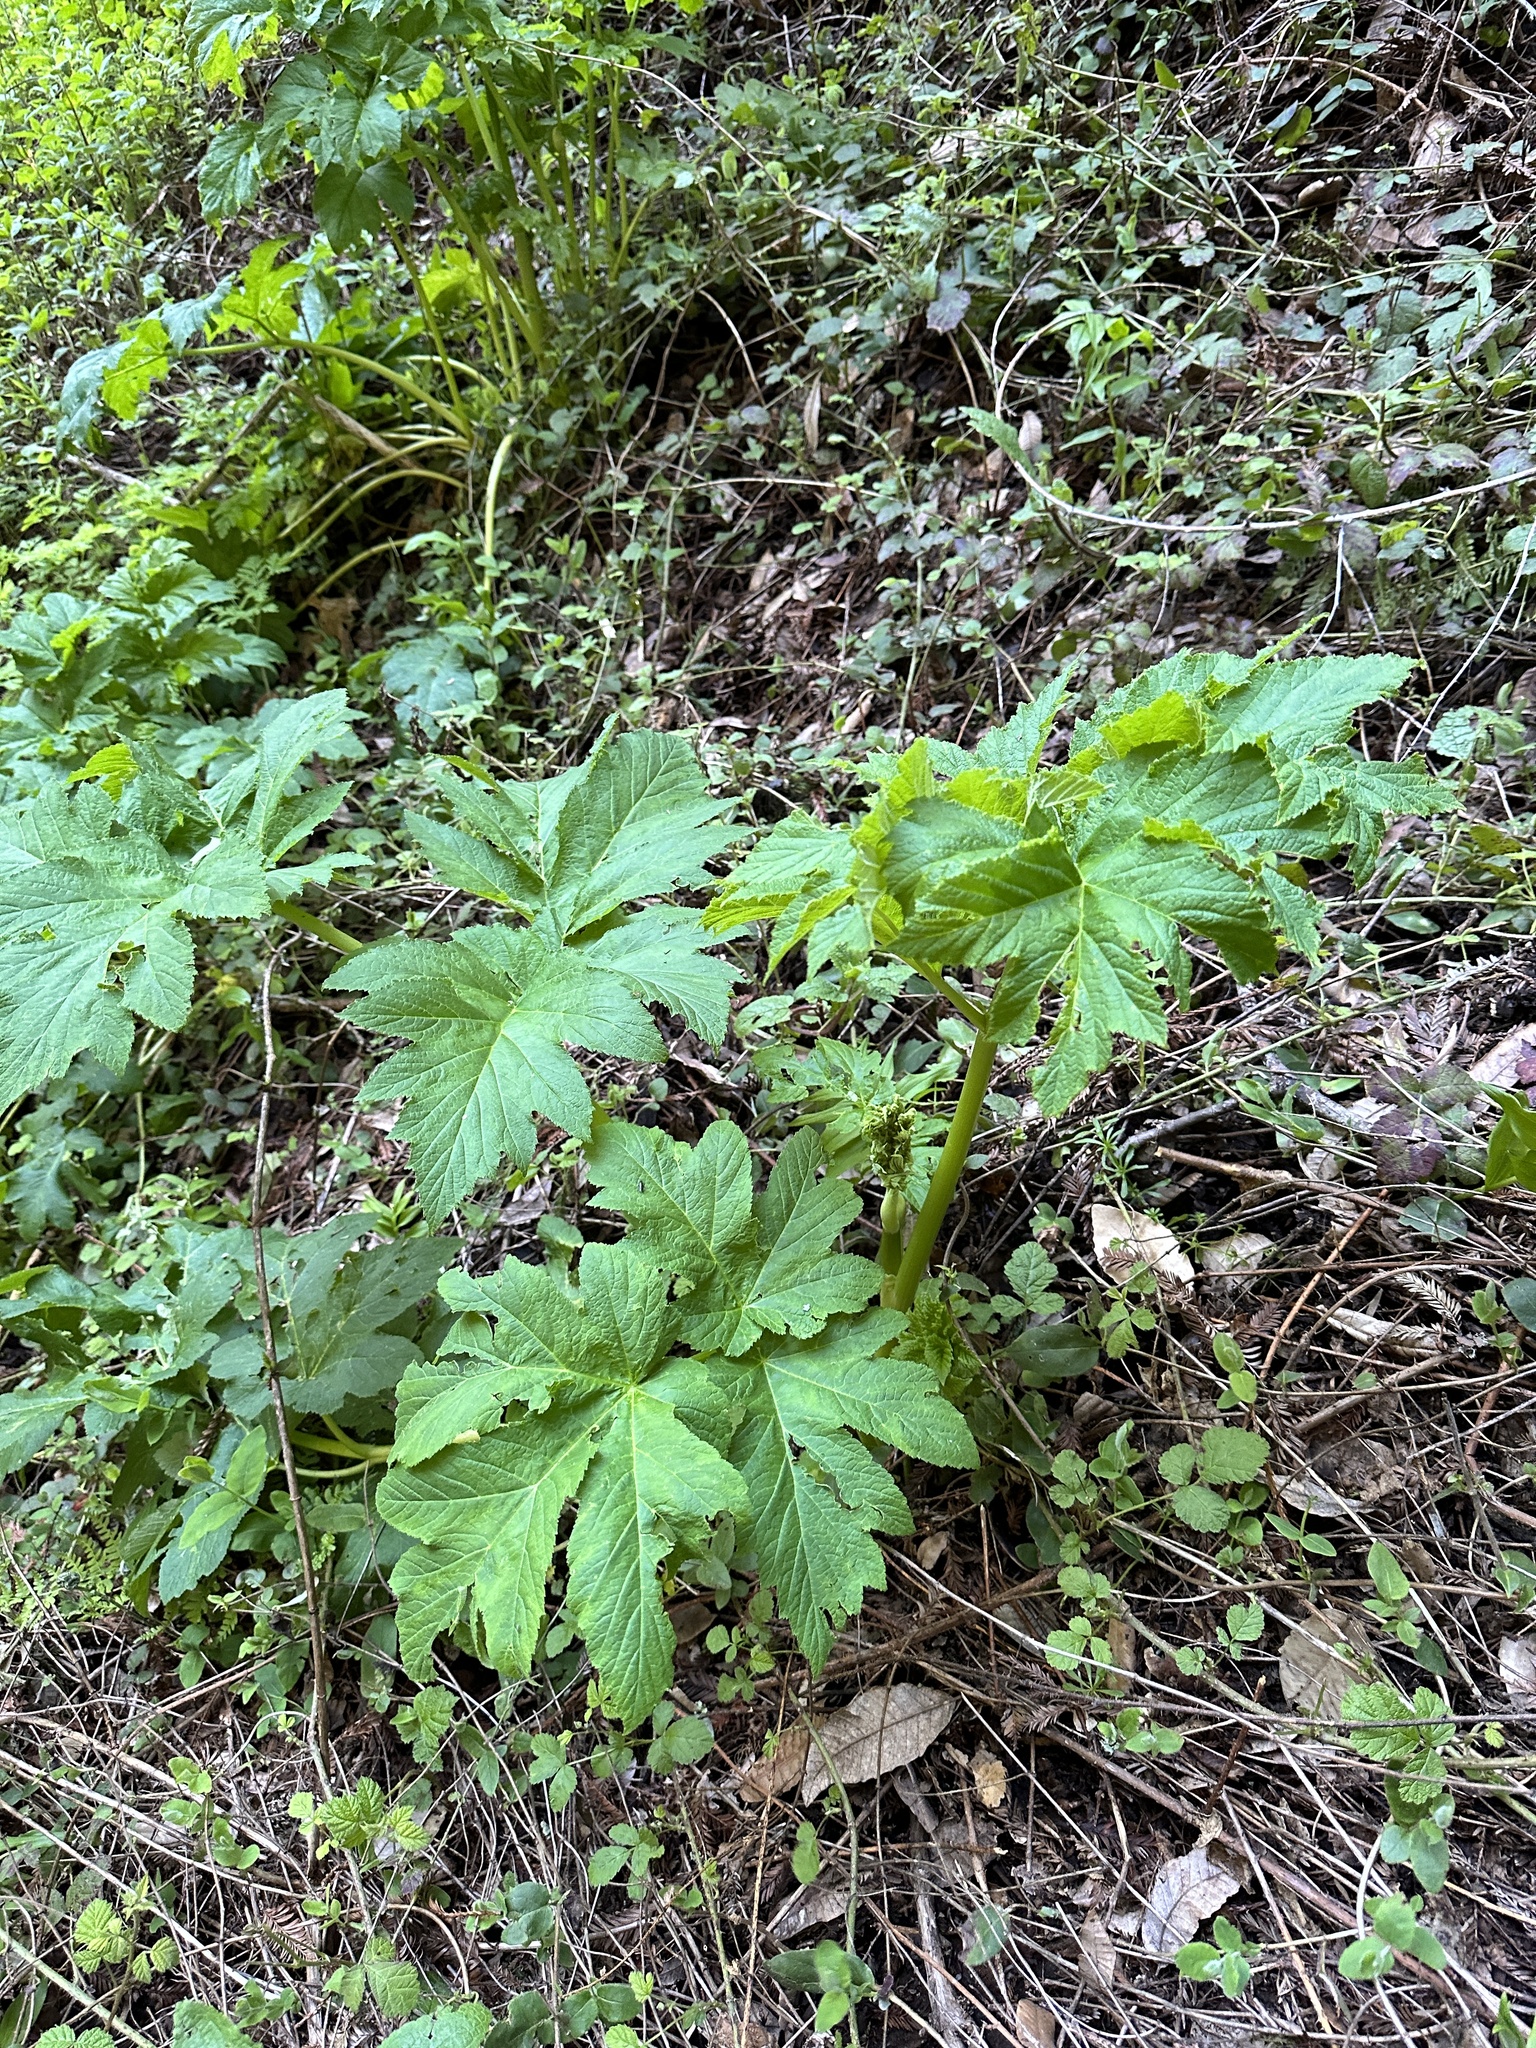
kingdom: Plantae
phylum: Tracheophyta
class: Magnoliopsida
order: Apiales
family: Apiaceae
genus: Heracleum
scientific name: Heracleum maximum
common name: American cow parsnip
